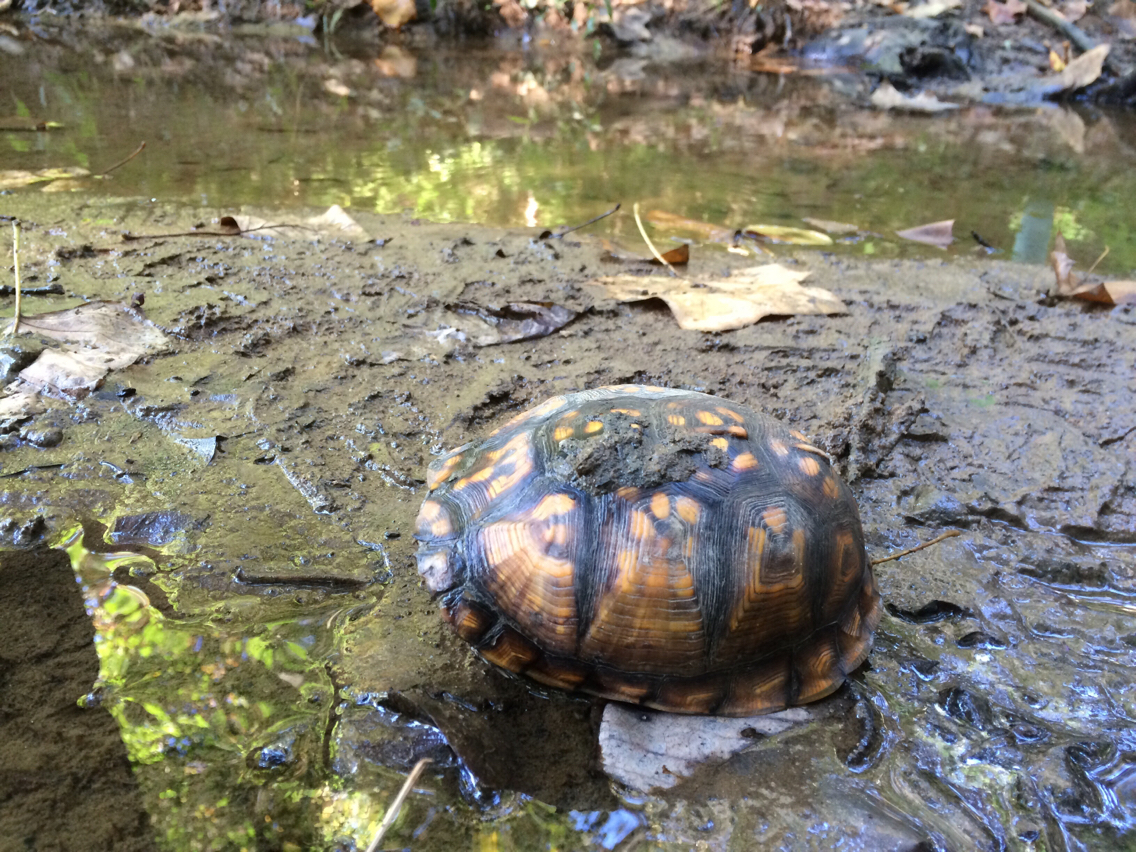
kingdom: Animalia
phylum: Chordata
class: Testudines
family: Emydidae
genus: Terrapene
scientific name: Terrapene carolina
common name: Common box turtle
